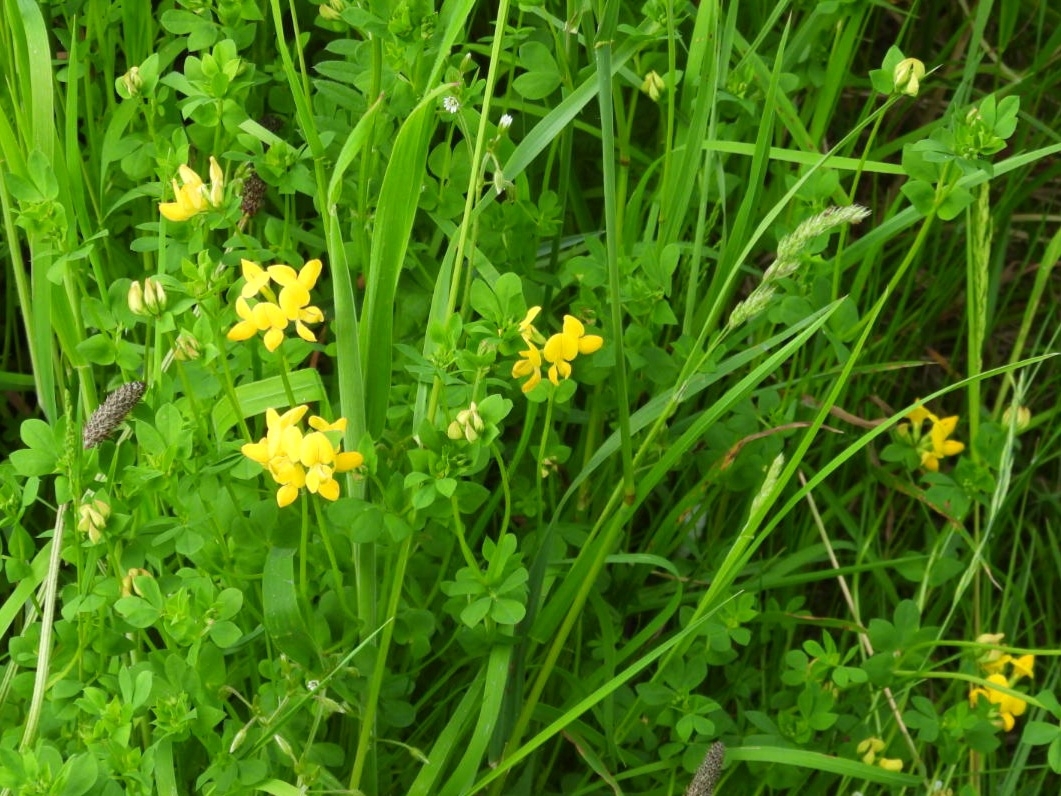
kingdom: Plantae
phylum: Tracheophyta
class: Magnoliopsida
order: Fabales
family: Fabaceae
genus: Lotus
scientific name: Lotus corniculatus
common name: Common bird's-foot-trefoil
